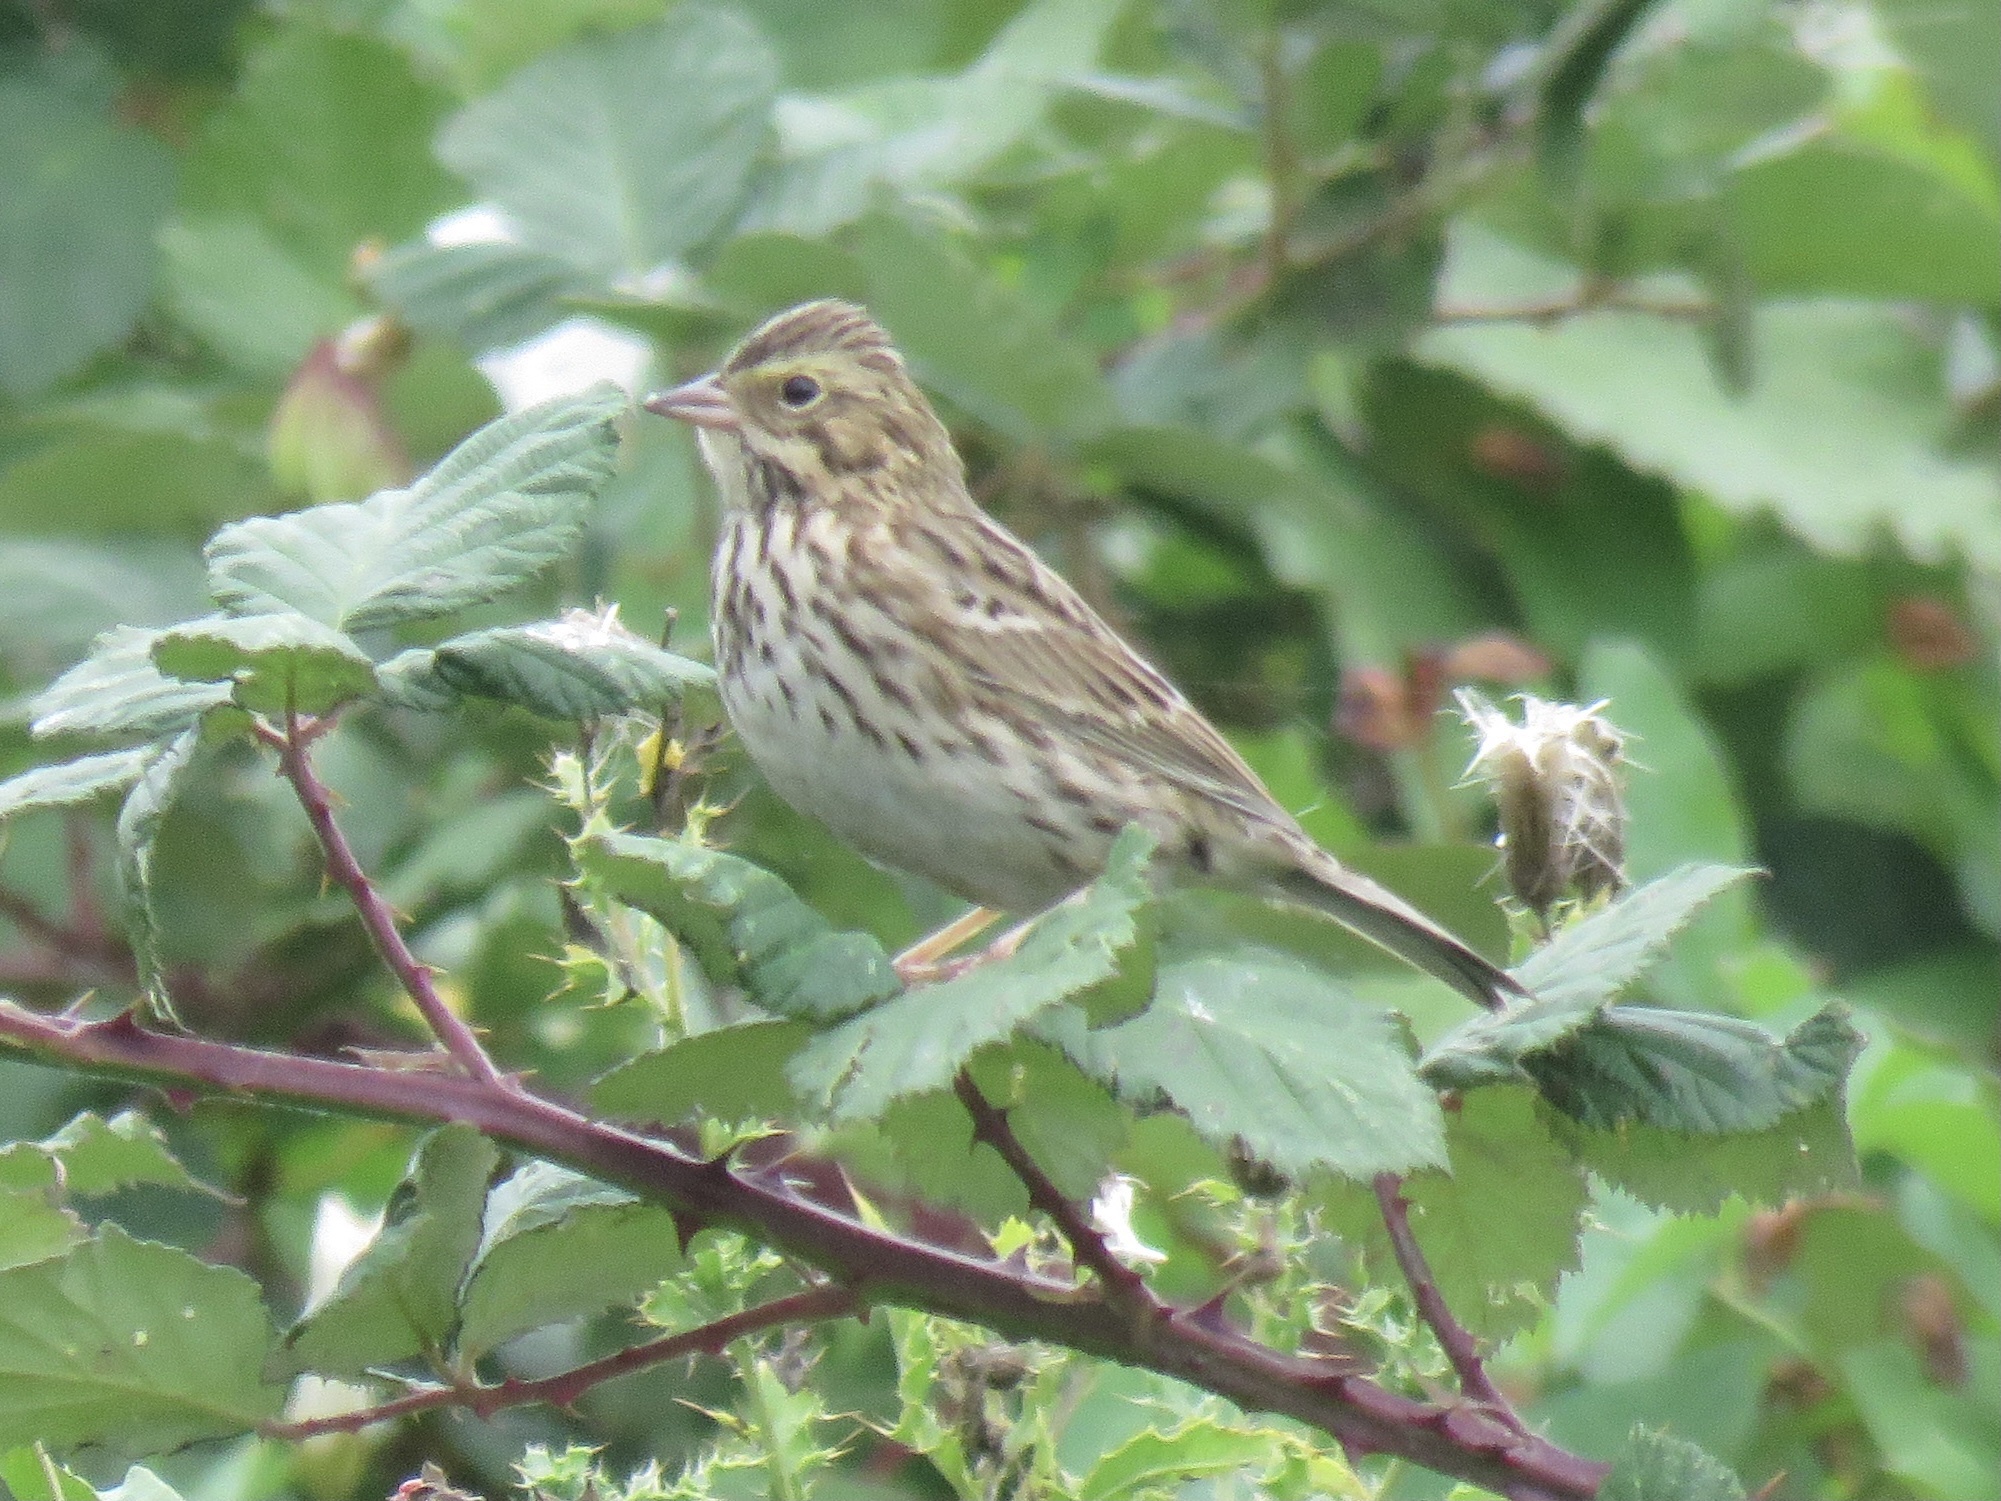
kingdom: Animalia
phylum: Chordata
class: Aves
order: Passeriformes
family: Passerellidae
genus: Passerculus
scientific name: Passerculus sandwichensis
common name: Savannah sparrow
